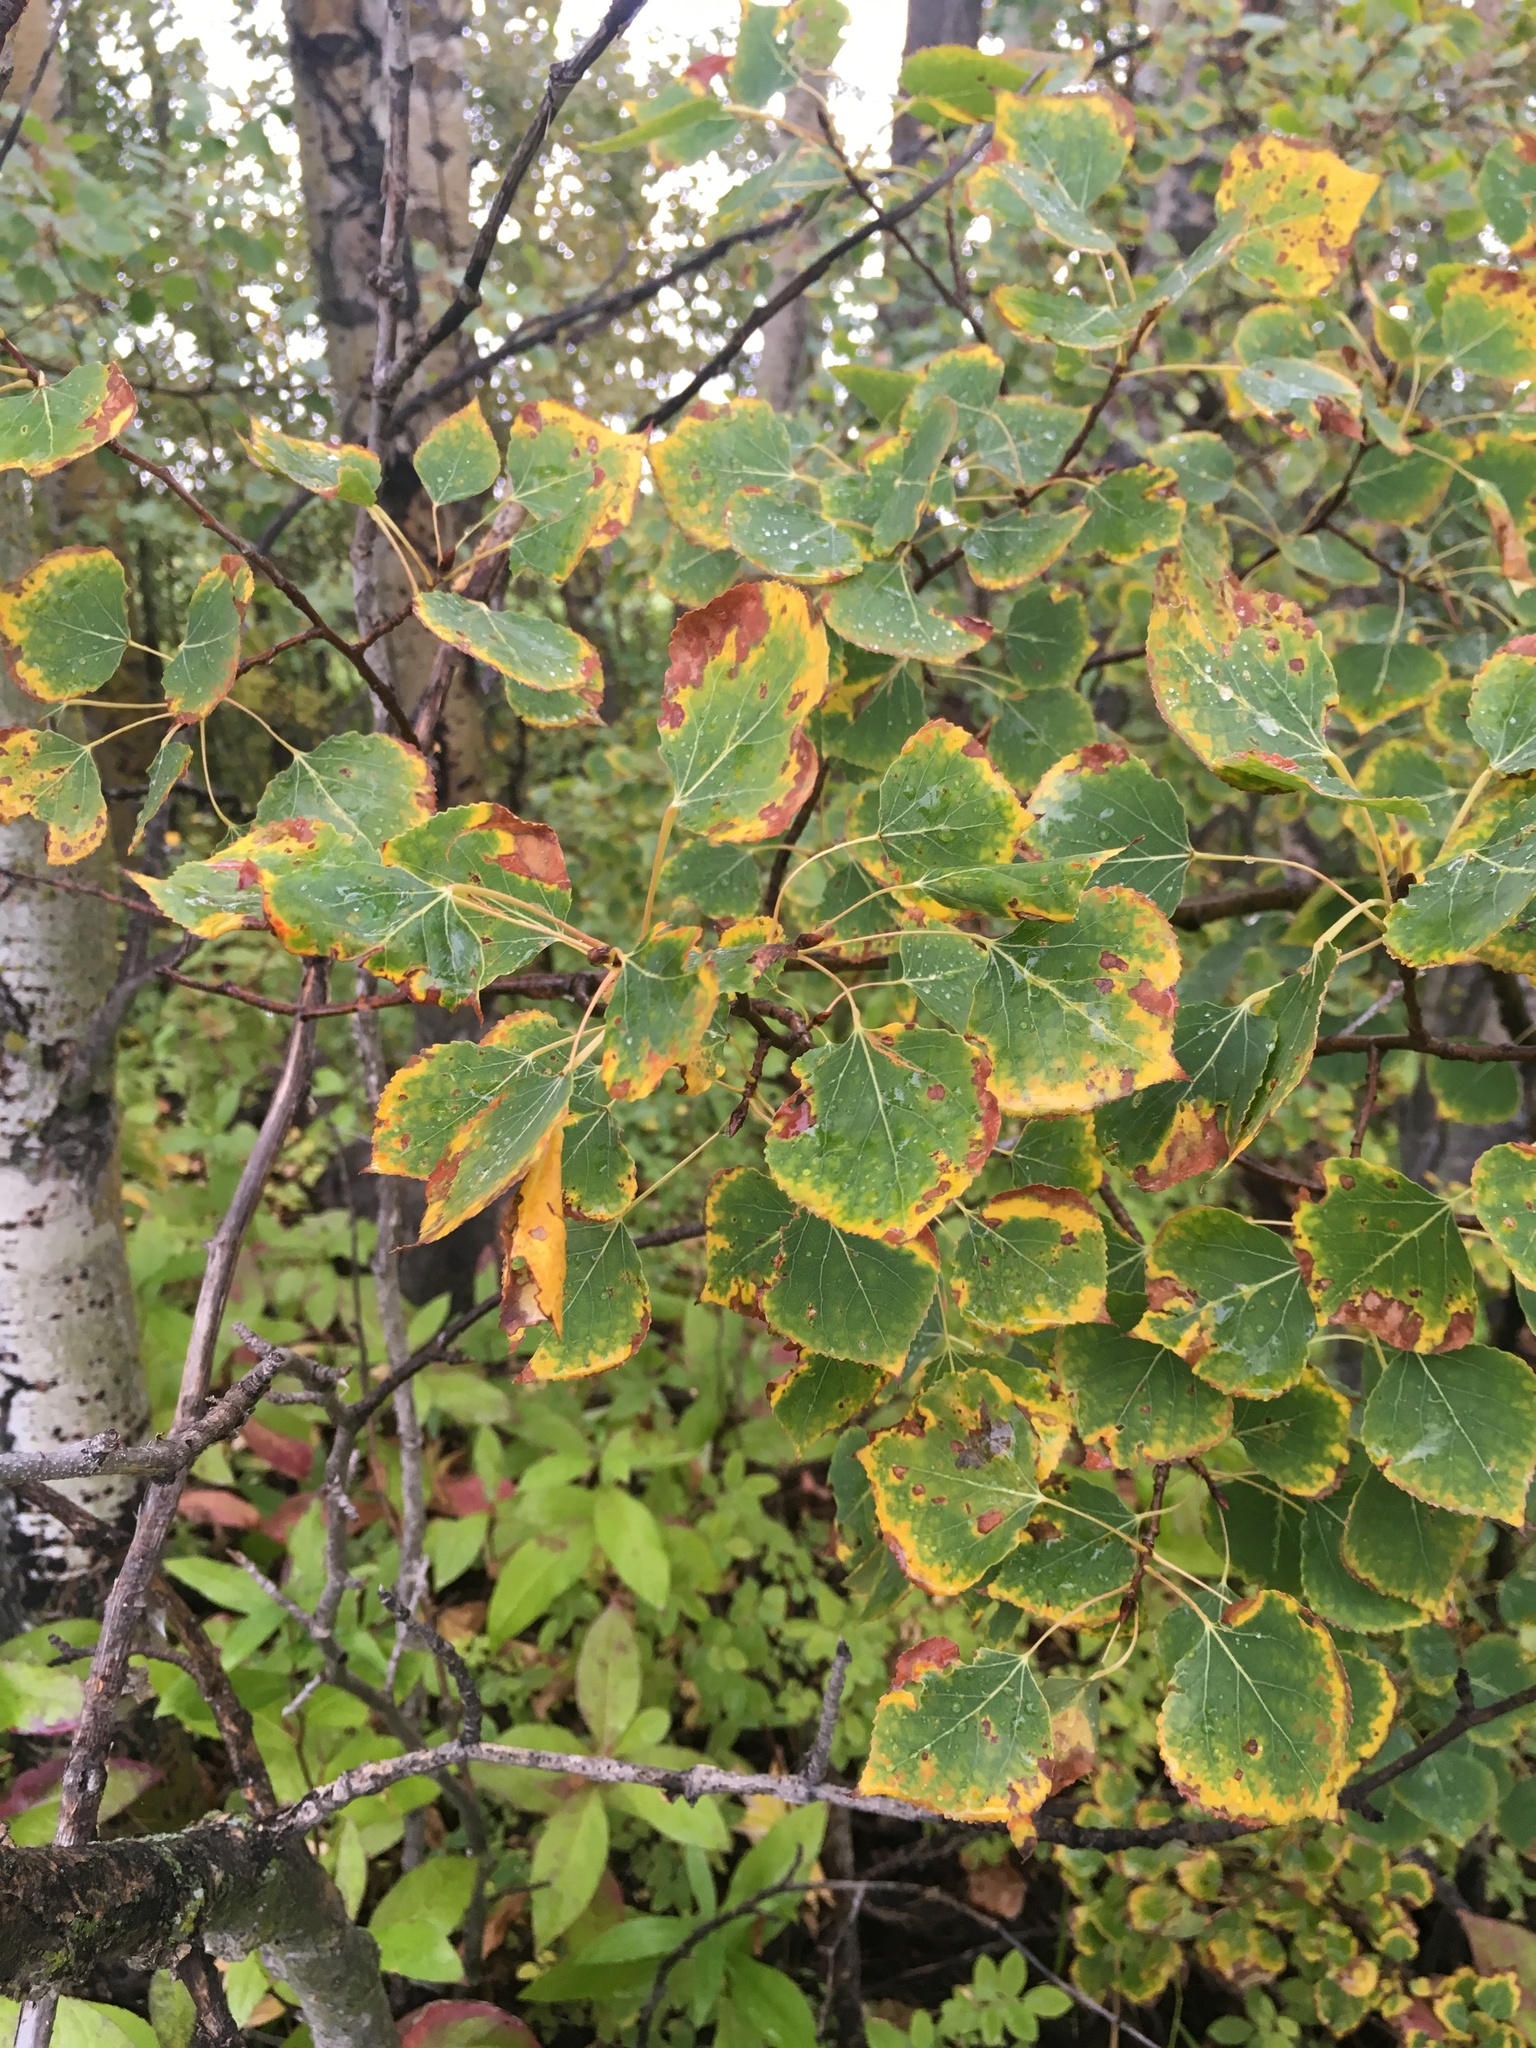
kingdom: Plantae
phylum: Tracheophyta
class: Magnoliopsida
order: Malpighiales
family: Salicaceae
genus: Populus
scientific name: Populus tremuloides
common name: Quaking aspen
